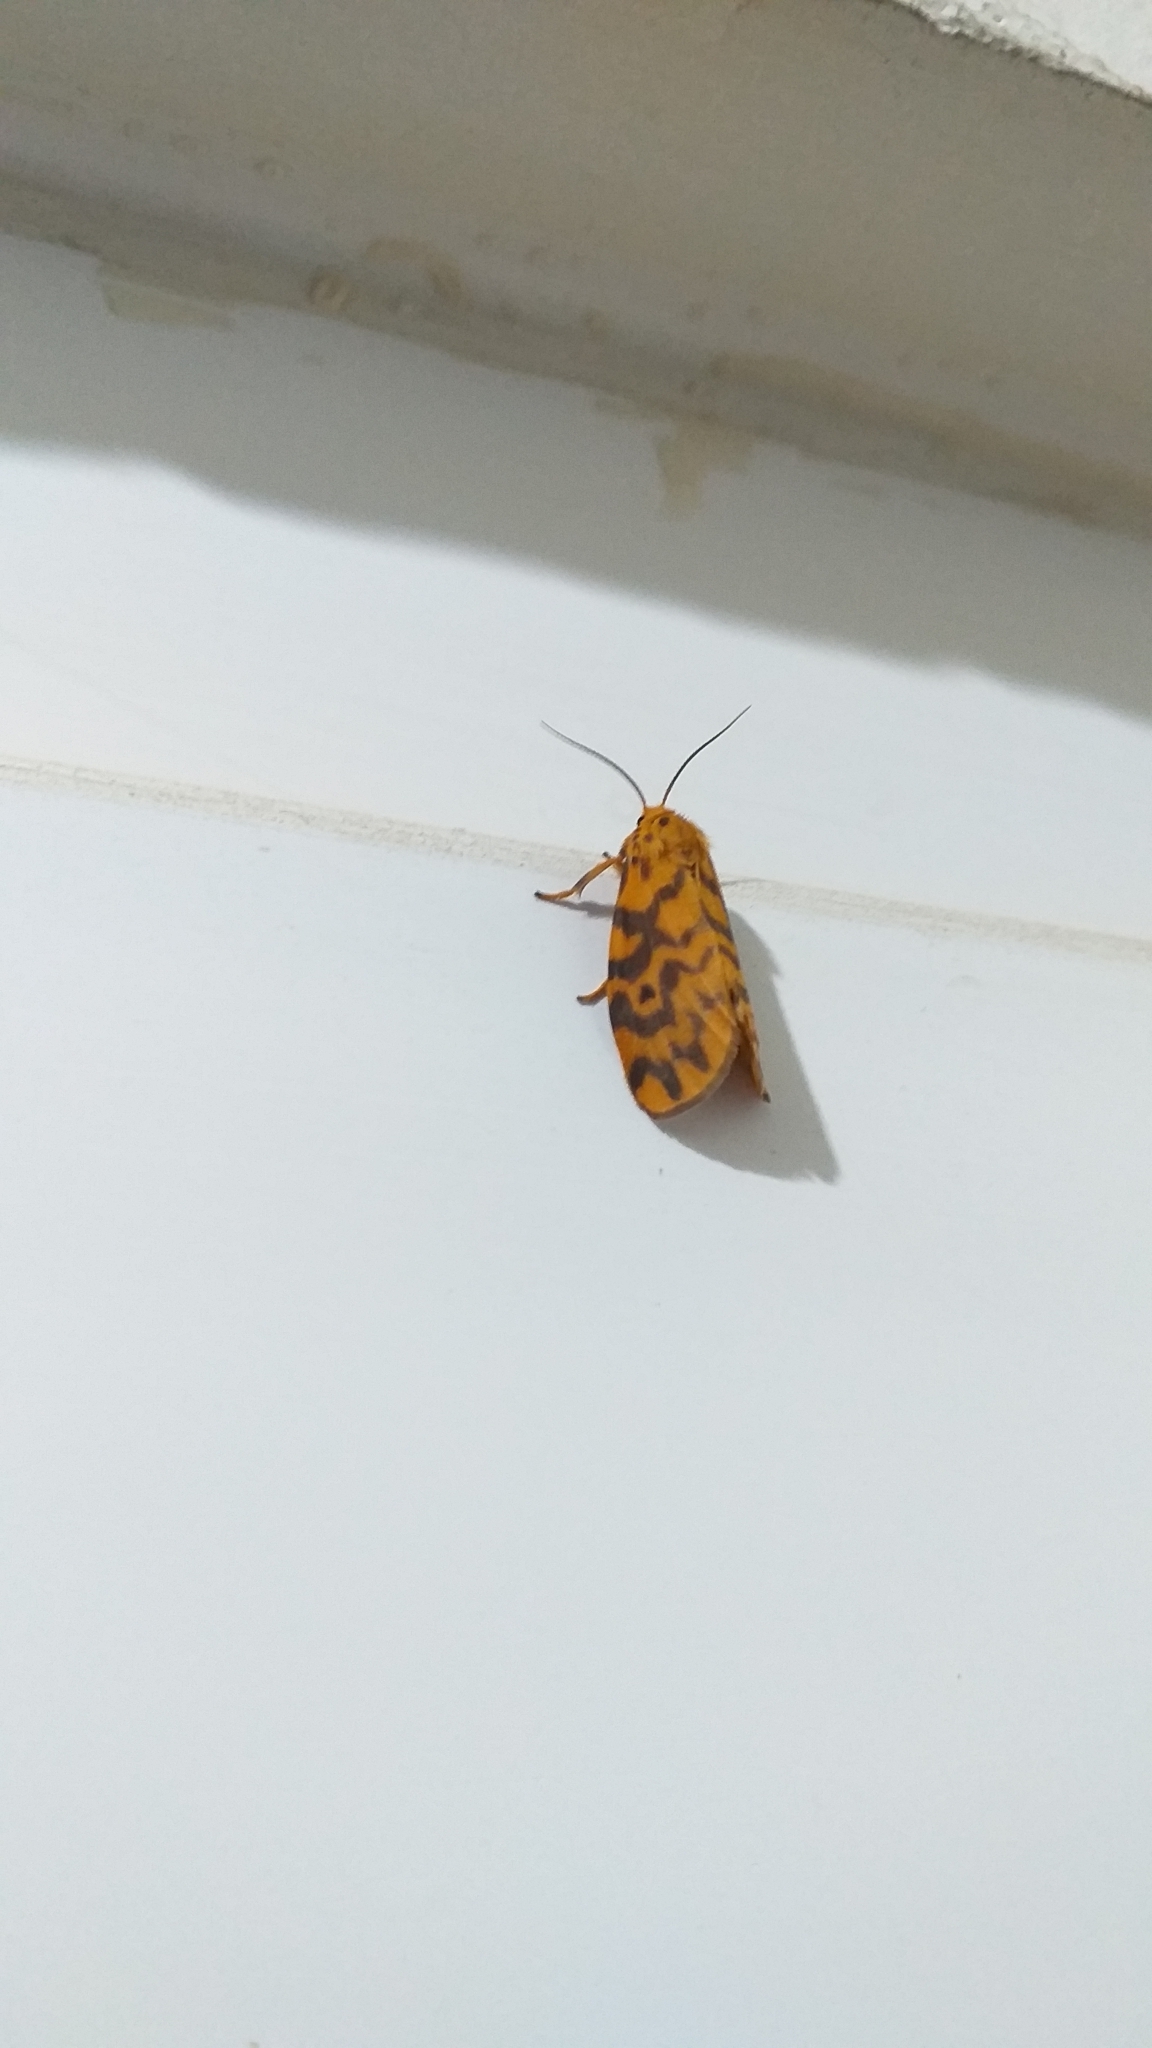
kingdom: Animalia
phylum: Arthropoda
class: Insecta
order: Lepidoptera
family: Erebidae
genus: Nepita
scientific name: Nepita conferta
